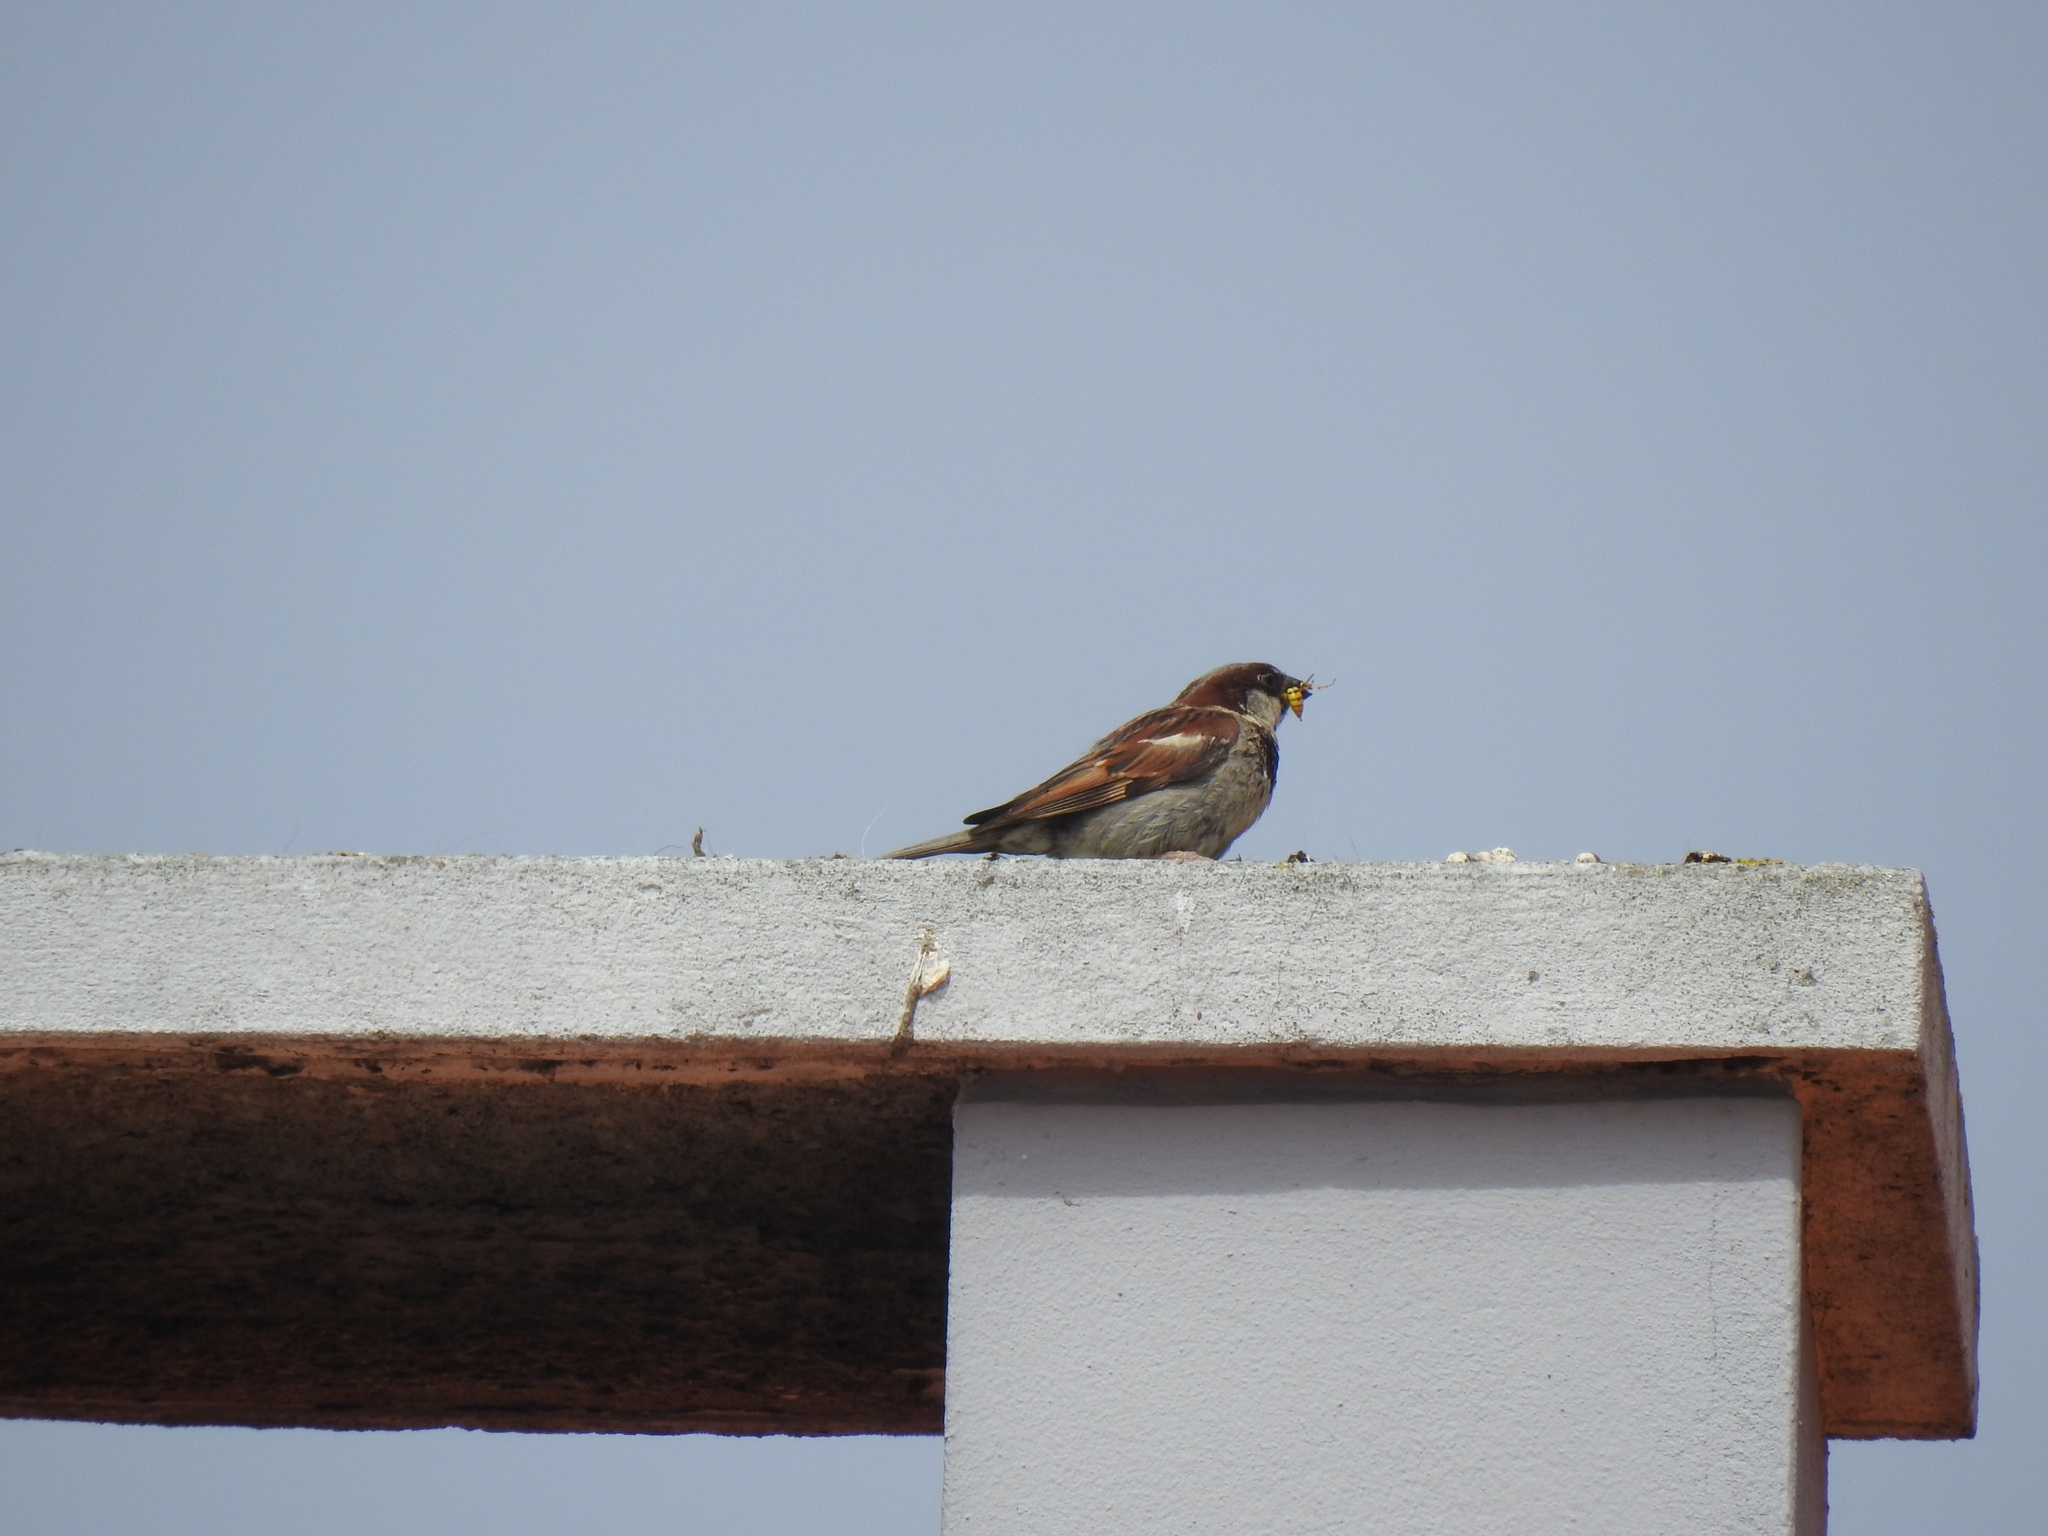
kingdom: Animalia
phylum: Chordata
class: Aves
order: Passeriformes
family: Passeridae
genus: Passer
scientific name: Passer domesticus
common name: House sparrow
